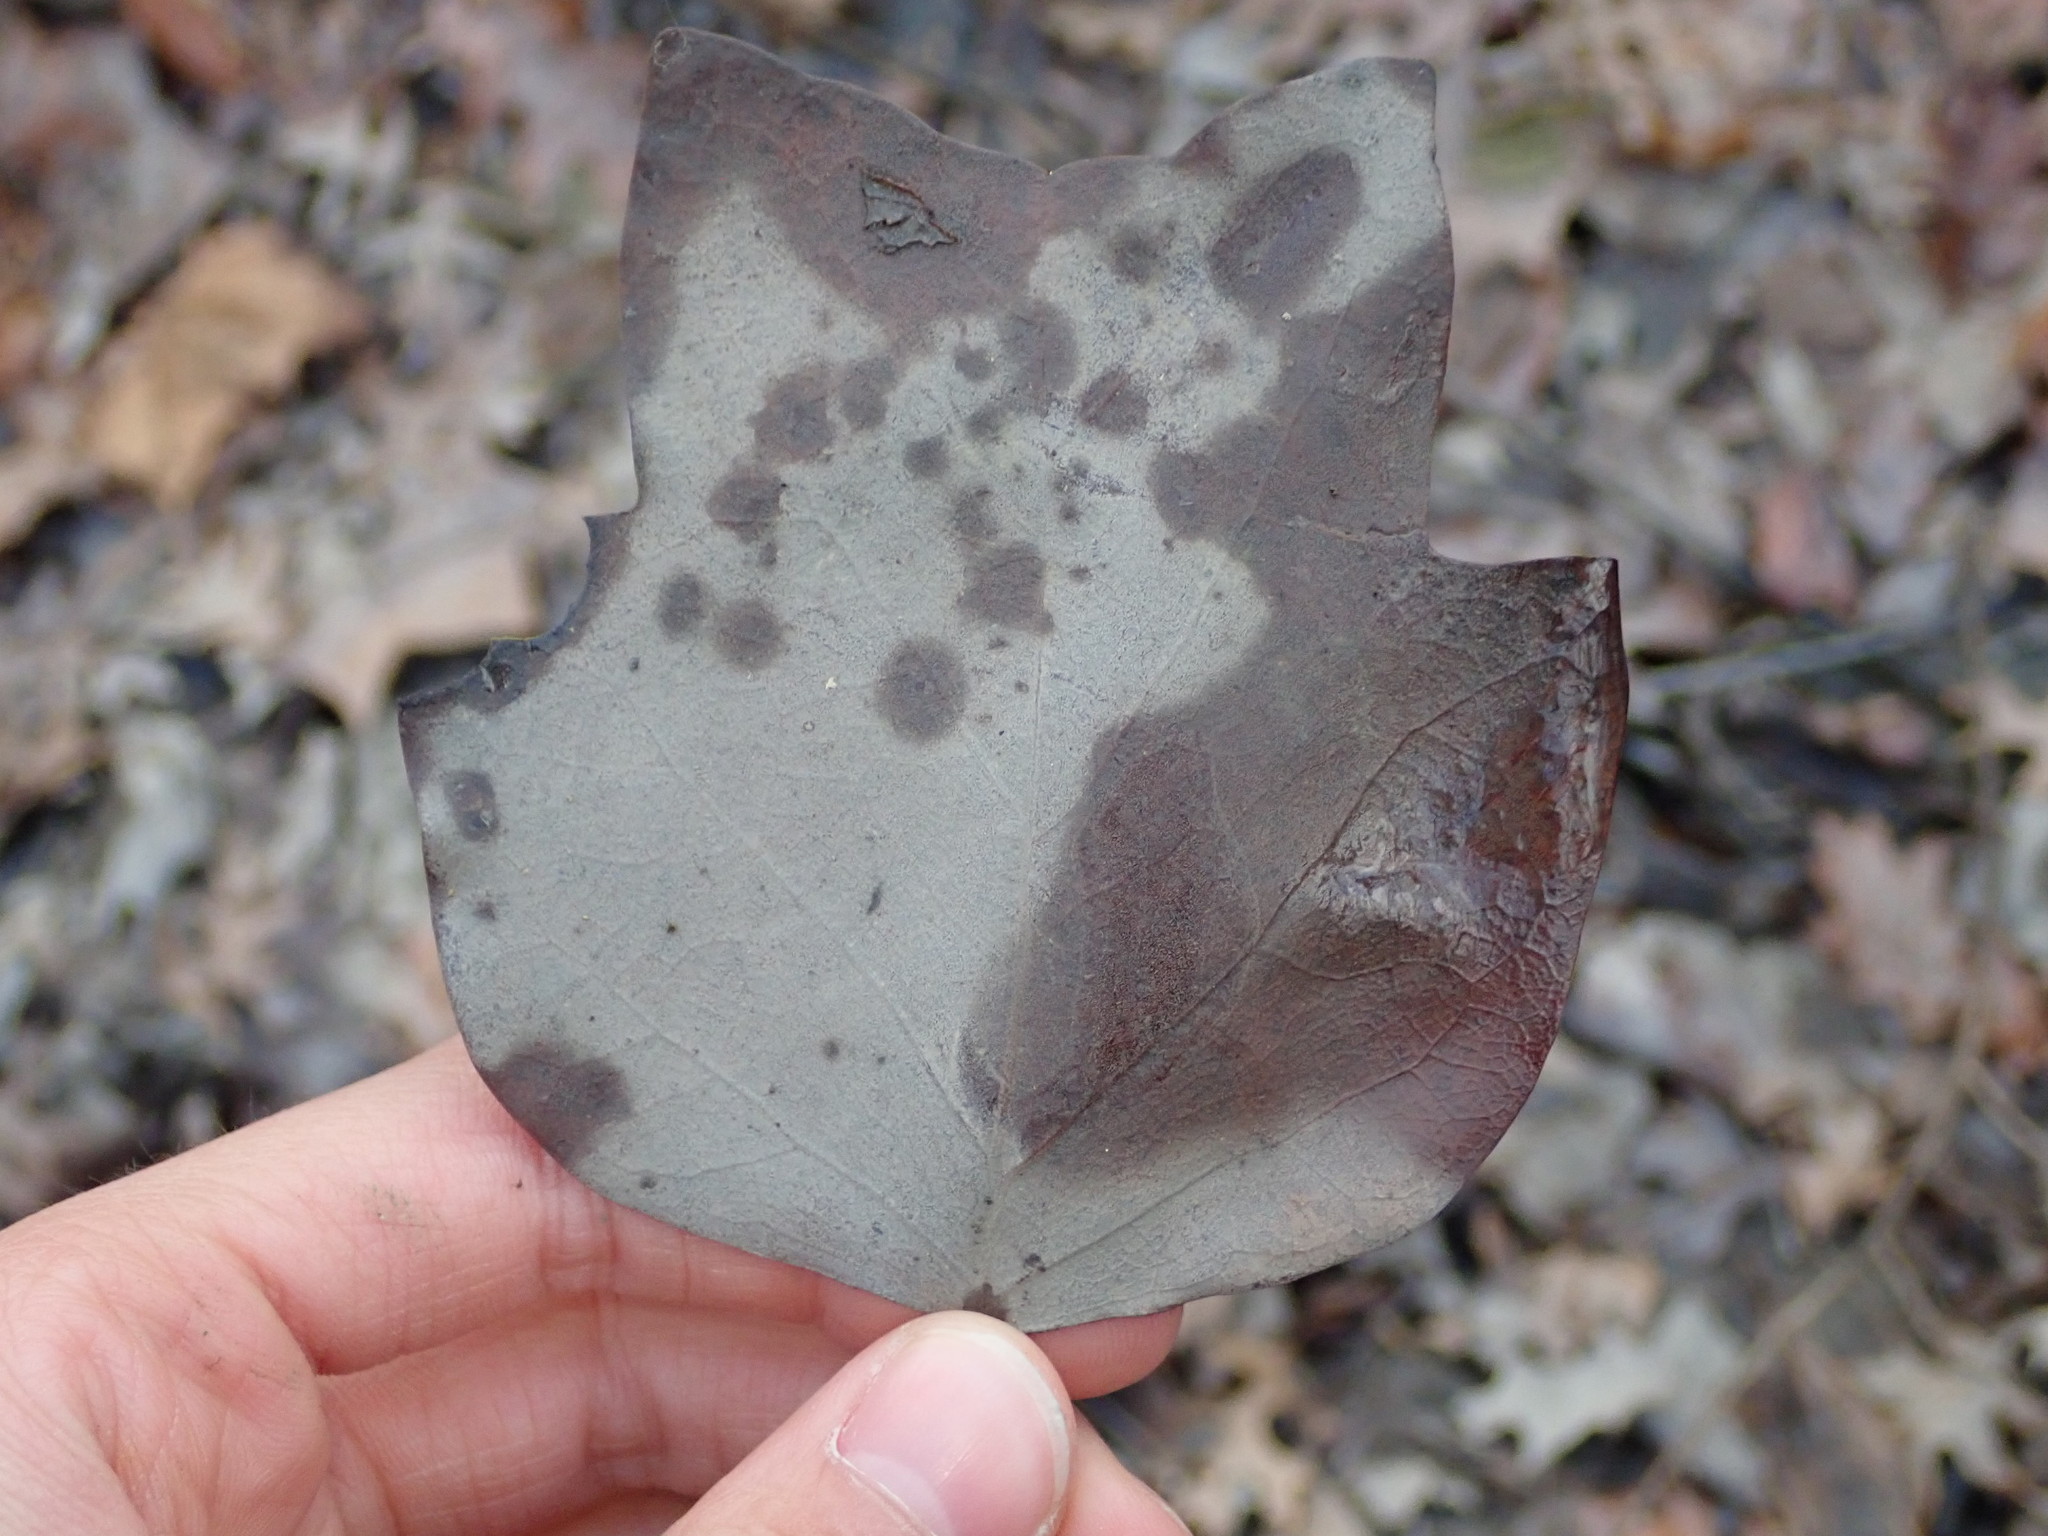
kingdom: Plantae
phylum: Tracheophyta
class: Magnoliopsida
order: Magnoliales
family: Magnoliaceae
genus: Liriodendron
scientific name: Liriodendron tulipifera
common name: Tulip tree
